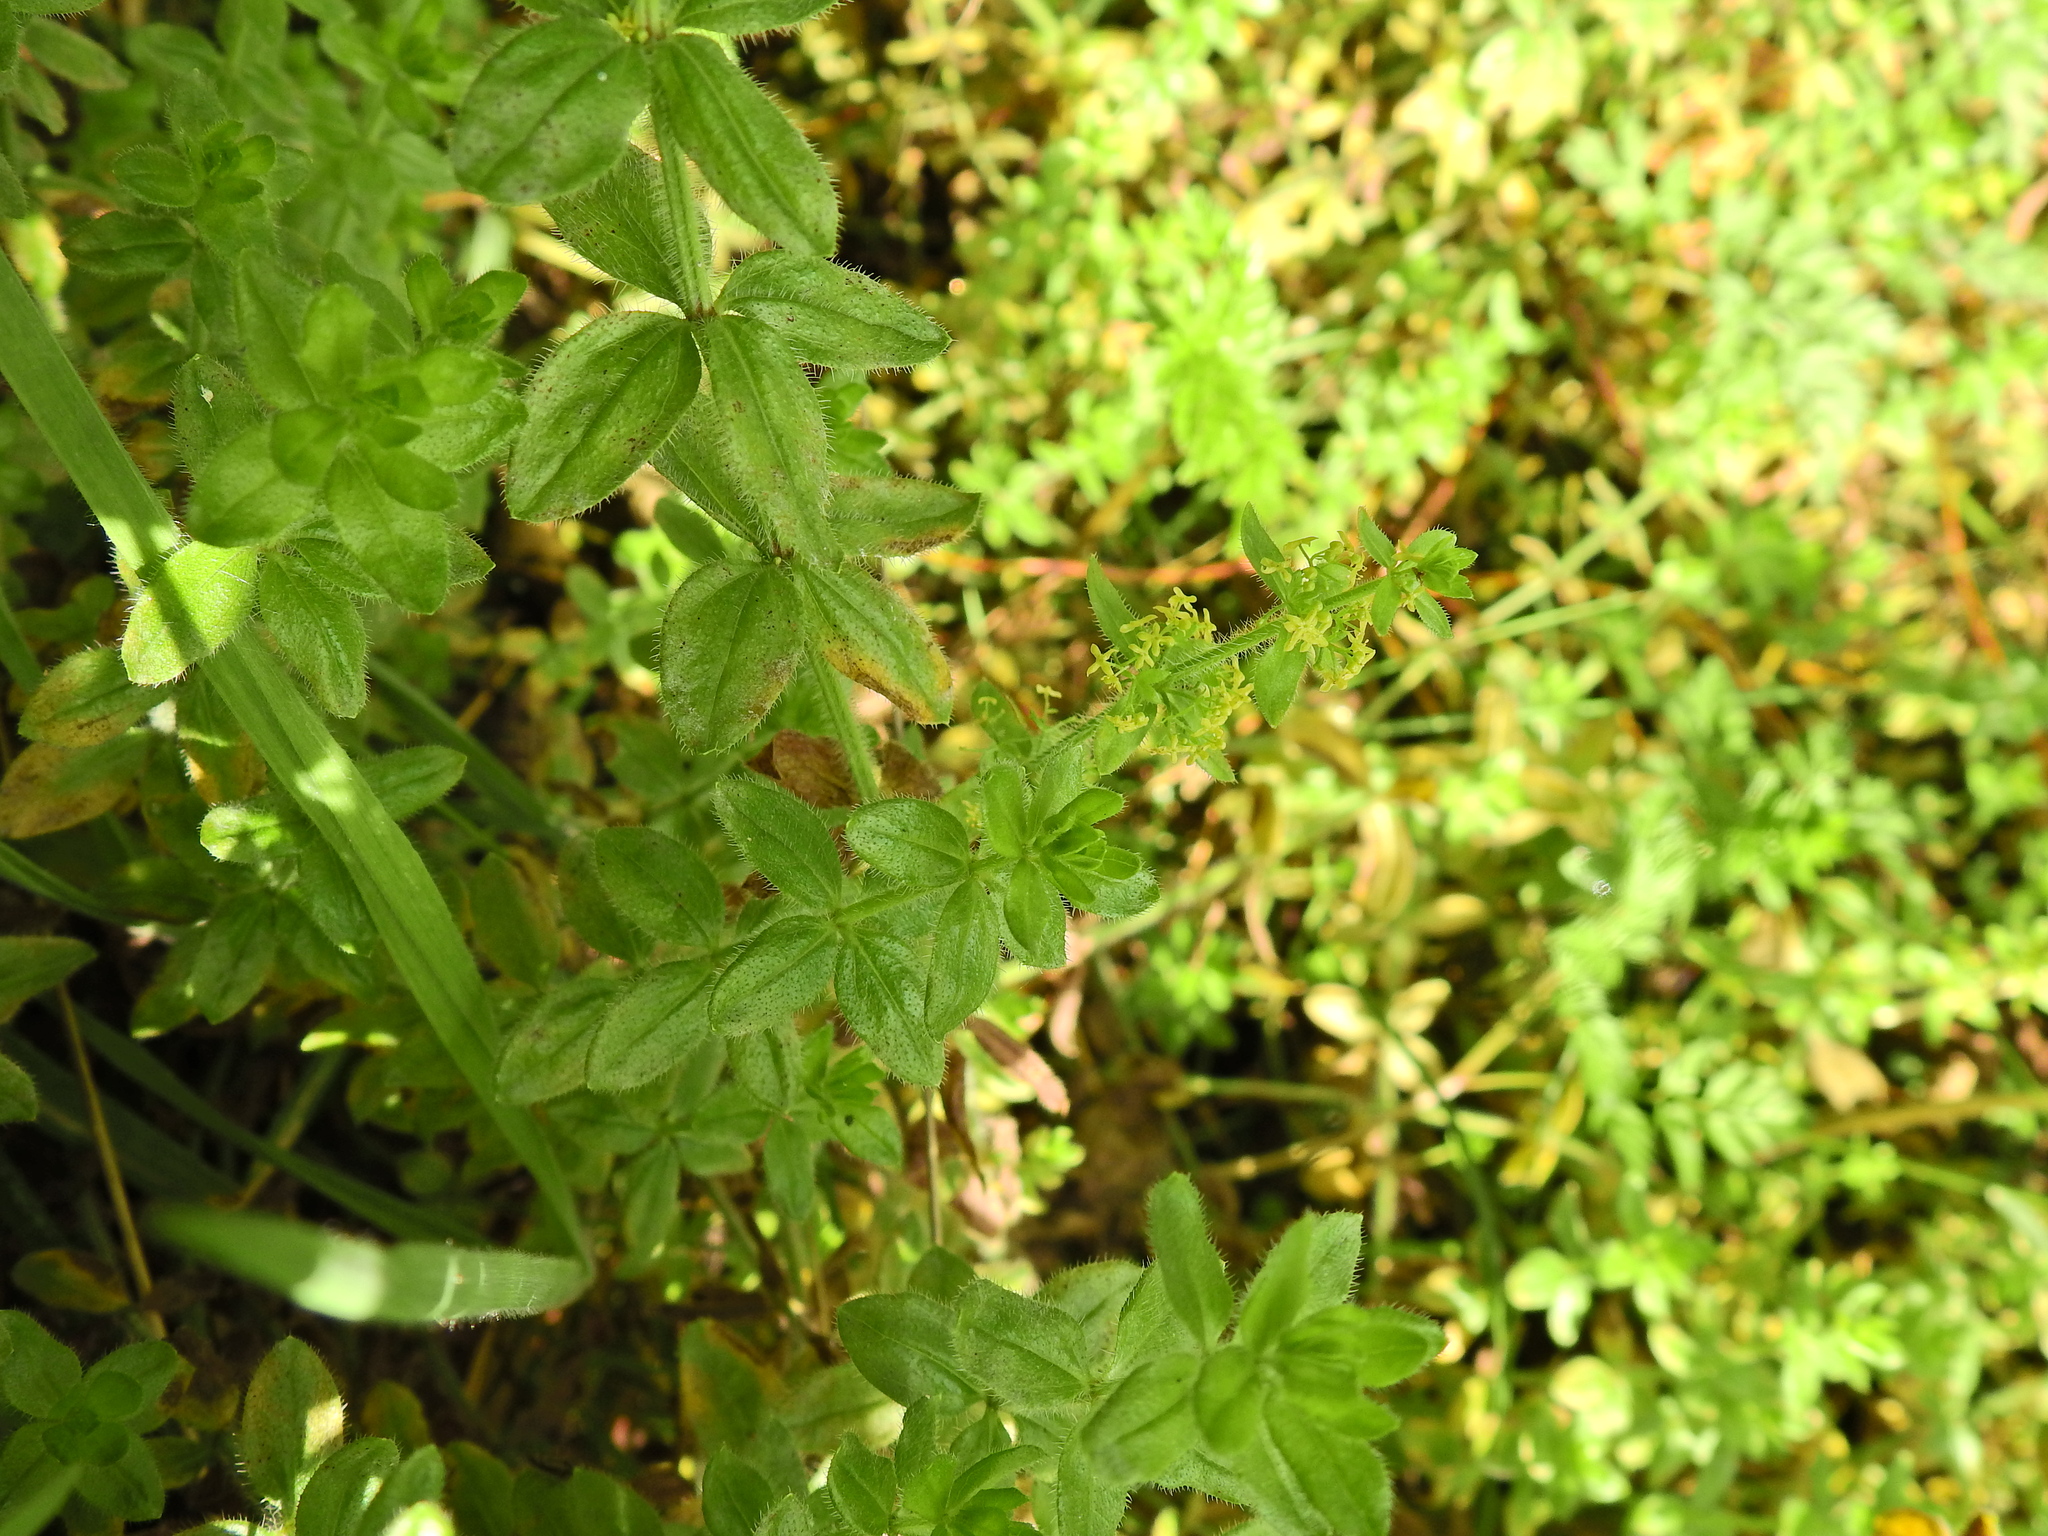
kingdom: Plantae
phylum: Tracheophyta
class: Magnoliopsida
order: Gentianales
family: Rubiaceae
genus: Cruciata
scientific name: Cruciata laevipes
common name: Crosswort
